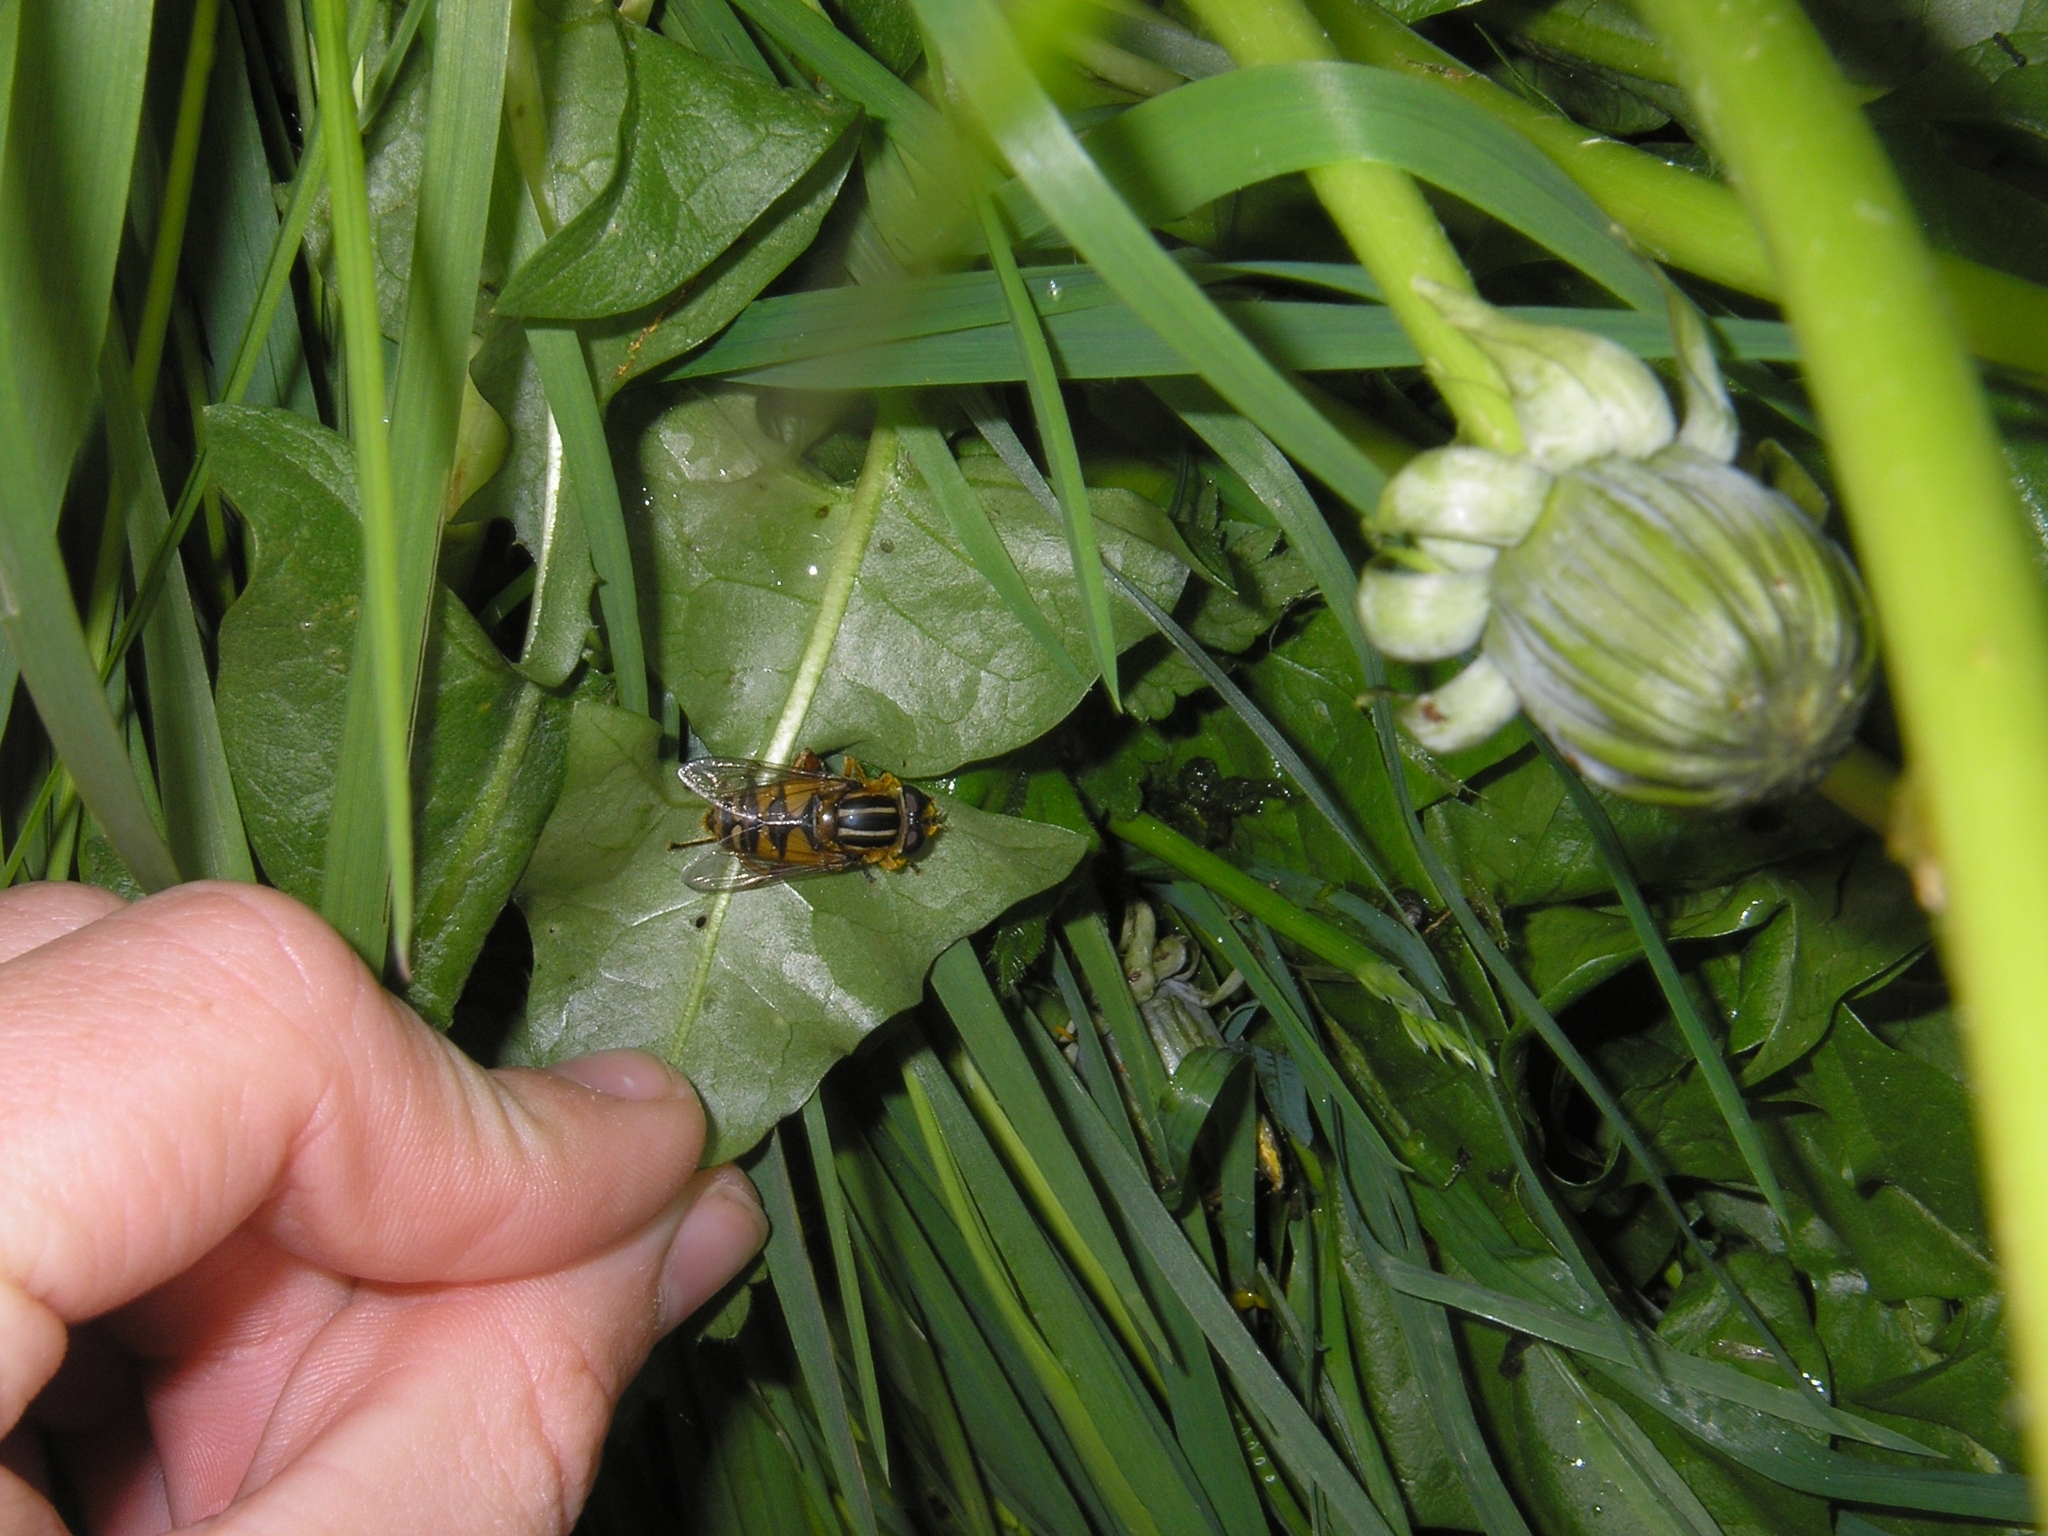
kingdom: Animalia
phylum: Arthropoda
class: Insecta
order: Diptera
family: Syrphidae
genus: Helophilus
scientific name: Helophilus pendulus
